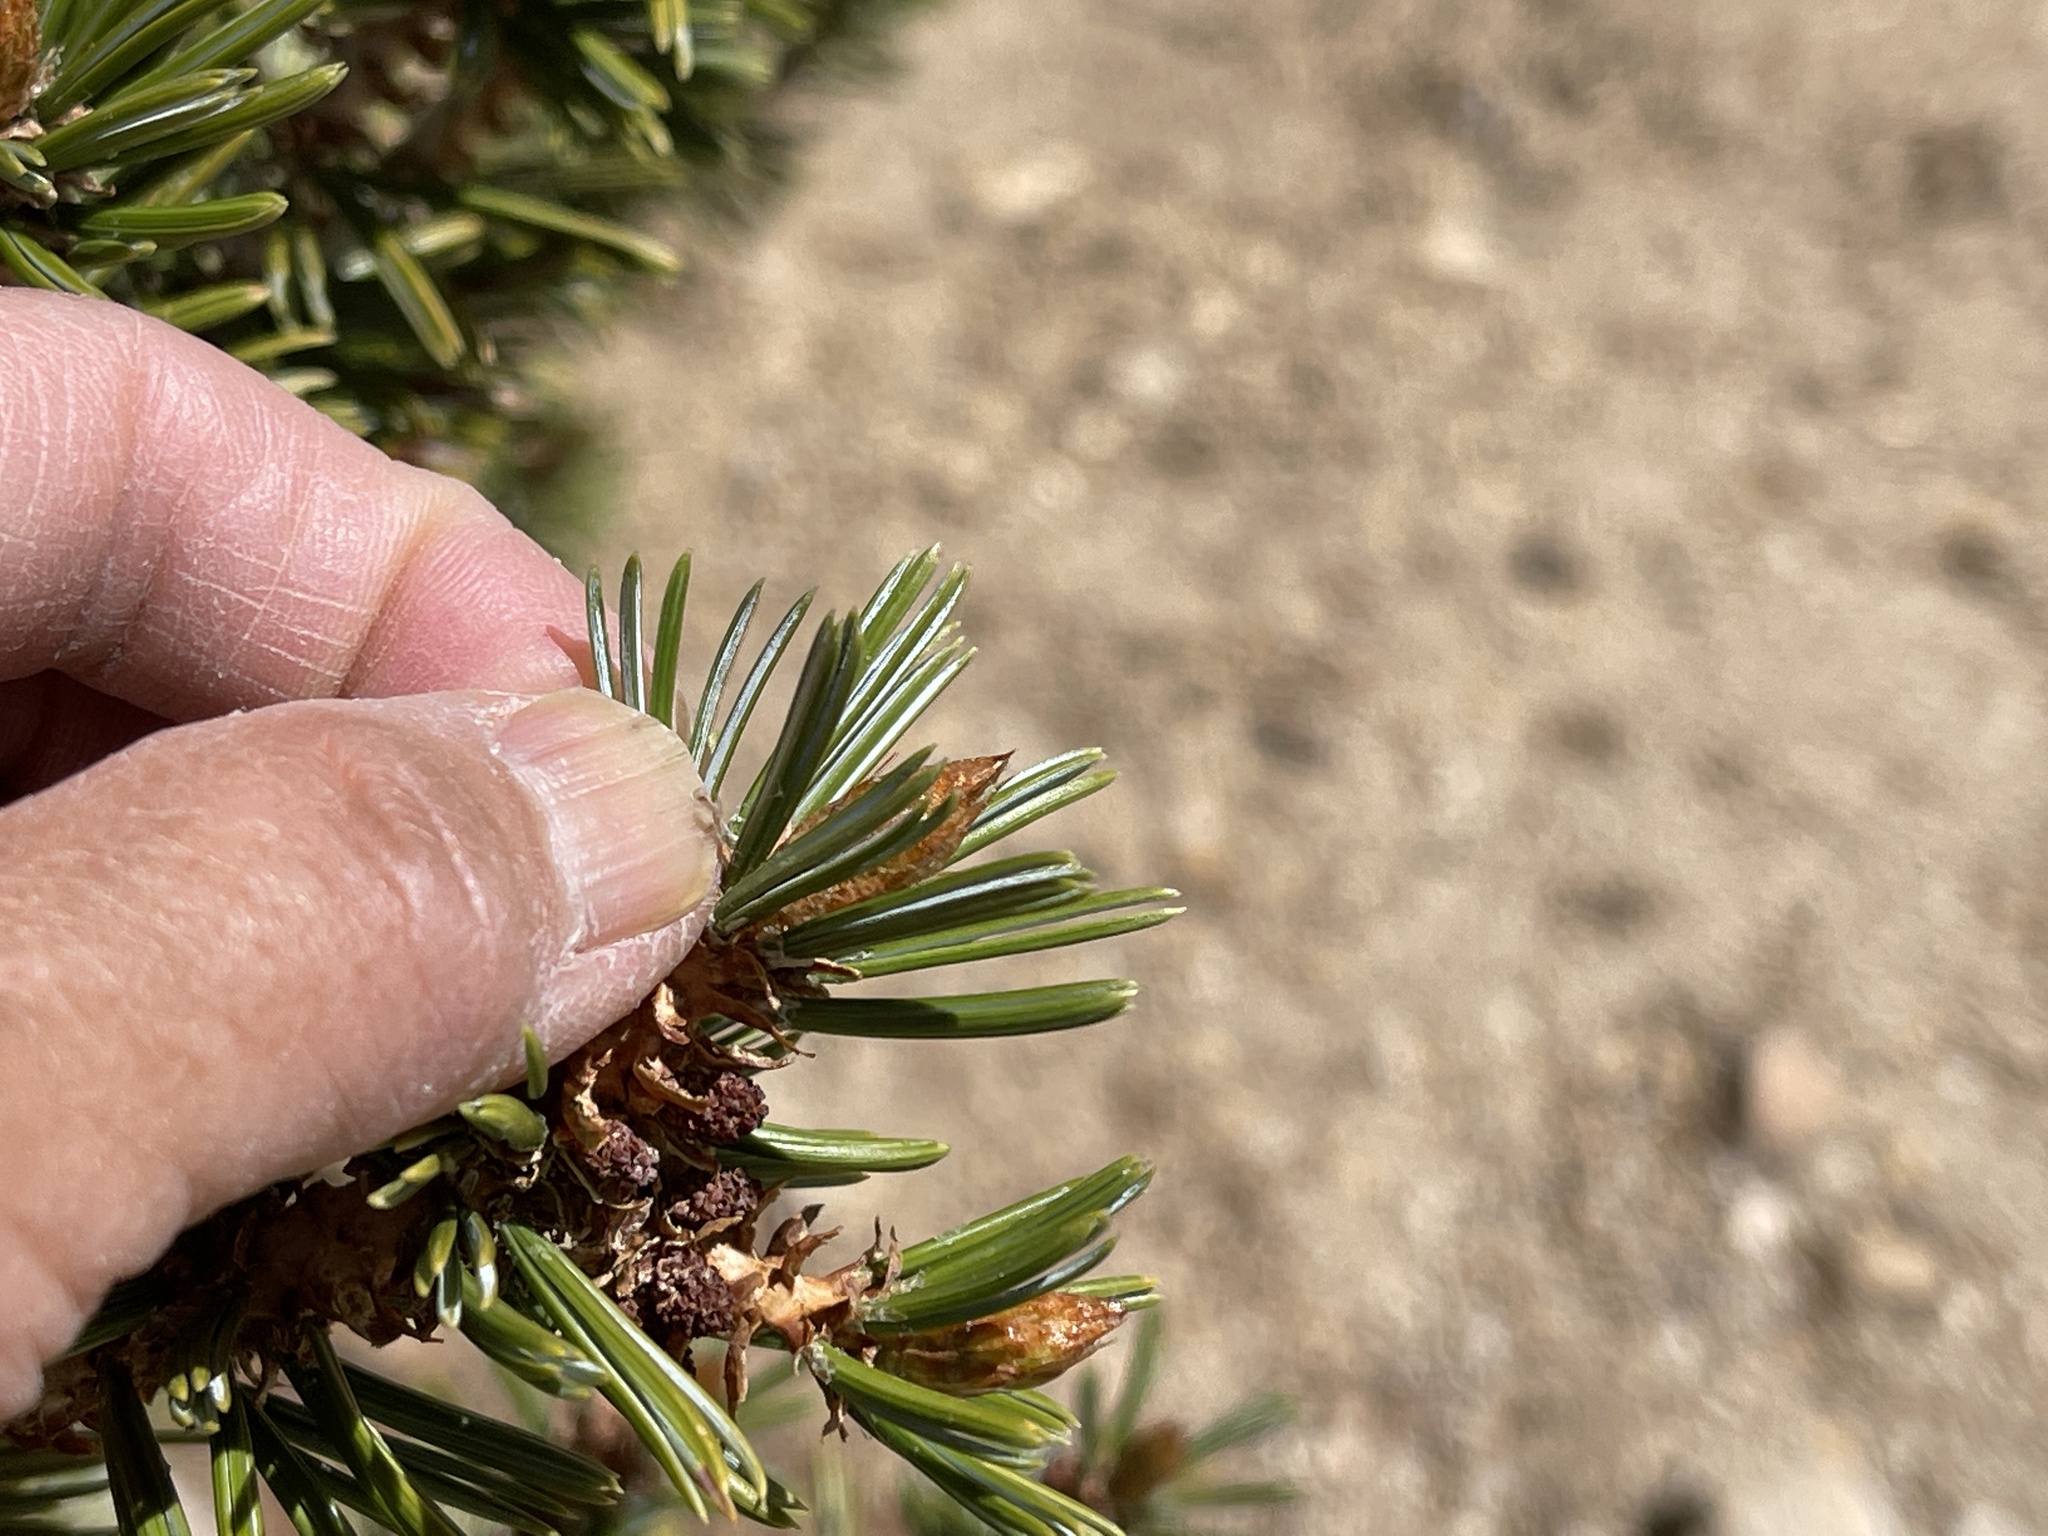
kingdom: Plantae
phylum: Tracheophyta
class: Pinopsida
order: Pinales
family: Pinaceae
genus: Pinus
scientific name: Pinus balfouriana
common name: Foxtail pine
